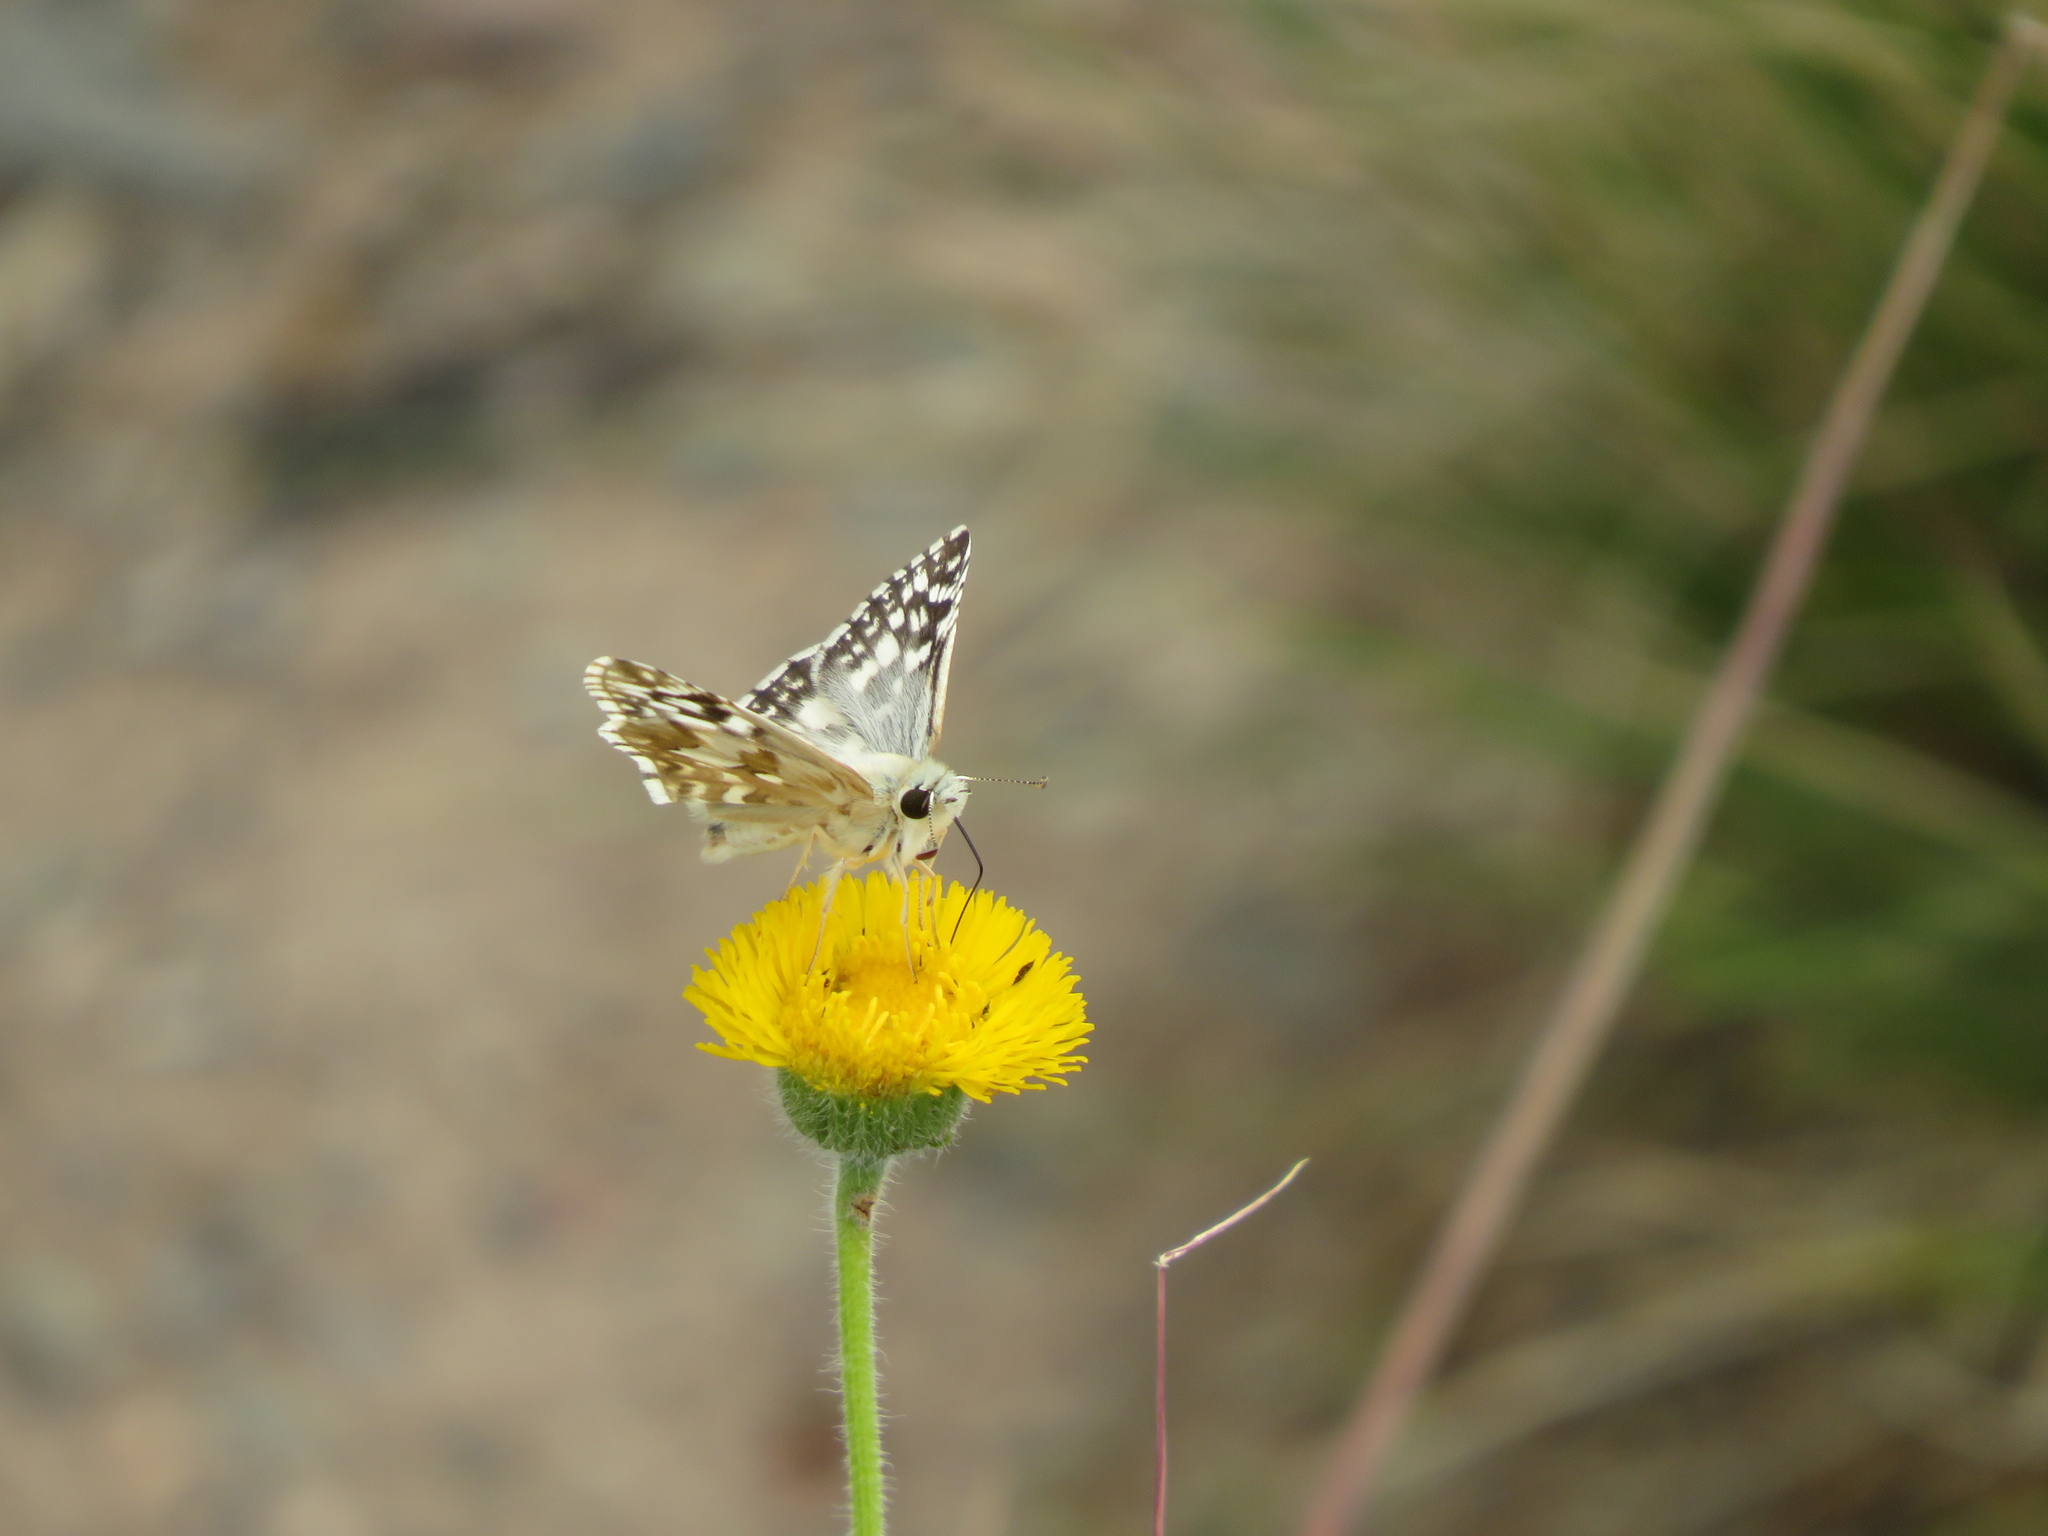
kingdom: Animalia
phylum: Arthropoda
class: Insecta
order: Lepidoptera
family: Hesperiidae
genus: Heliopetes
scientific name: Heliopetes americanus
